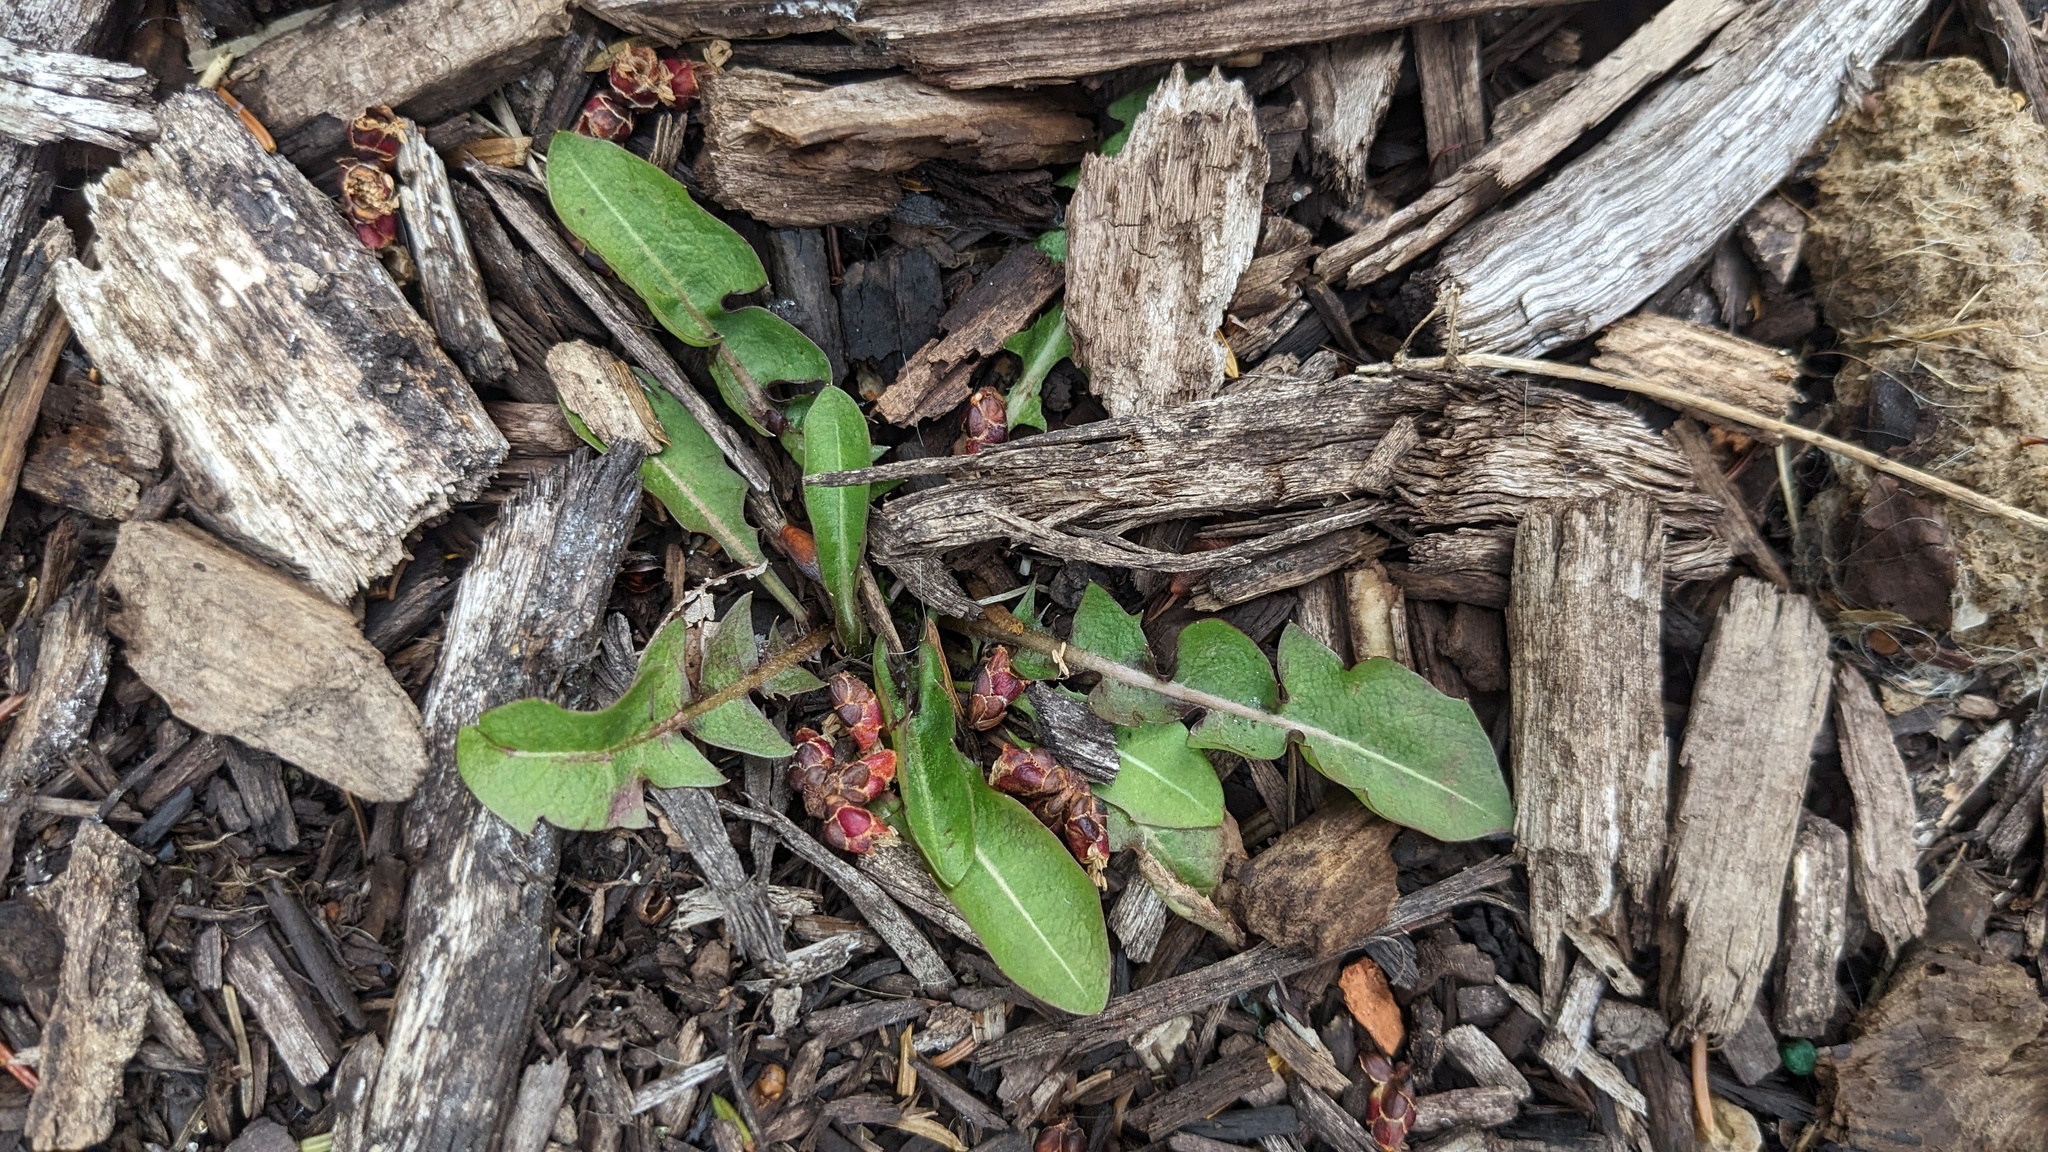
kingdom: Plantae
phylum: Tracheophyta
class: Magnoliopsida
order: Asterales
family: Asteraceae
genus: Taraxacum
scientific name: Taraxacum
